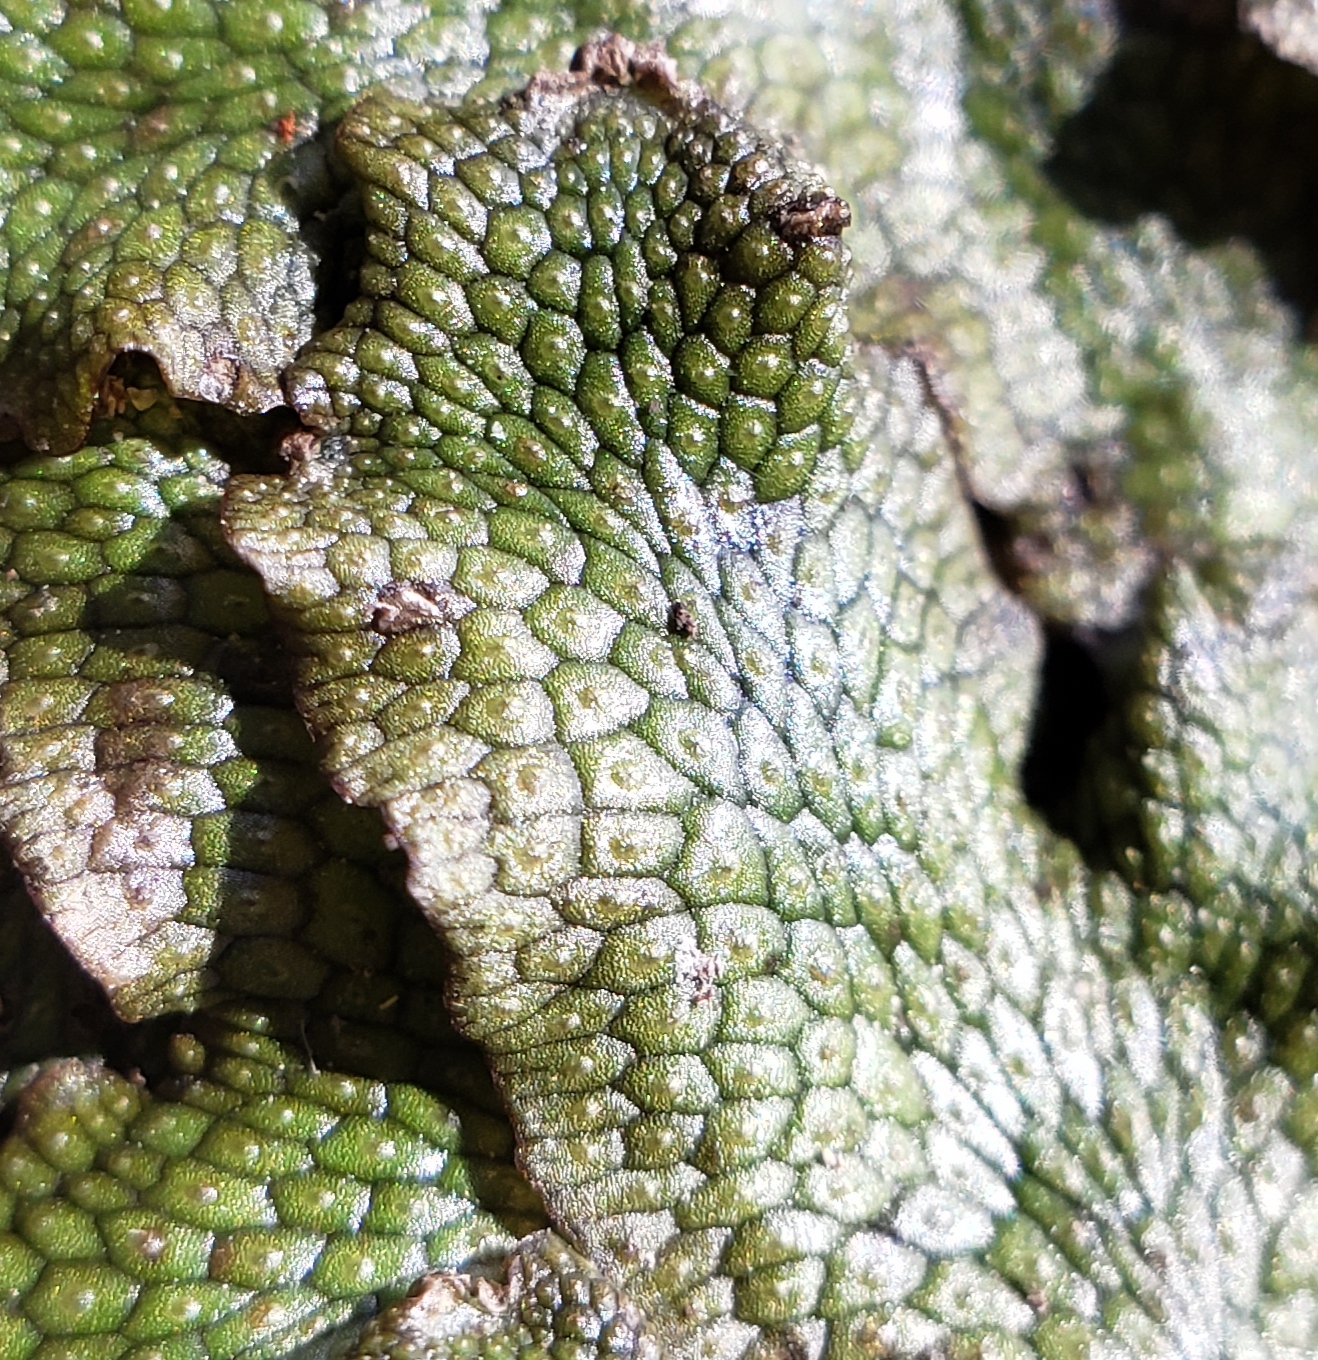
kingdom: Plantae
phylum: Marchantiophyta
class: Marchantiopsida
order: Marchantiales
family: Conocephalaceae
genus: Conocephalum
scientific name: Conocephalum salebrosum
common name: Cat-tongue liverwort
